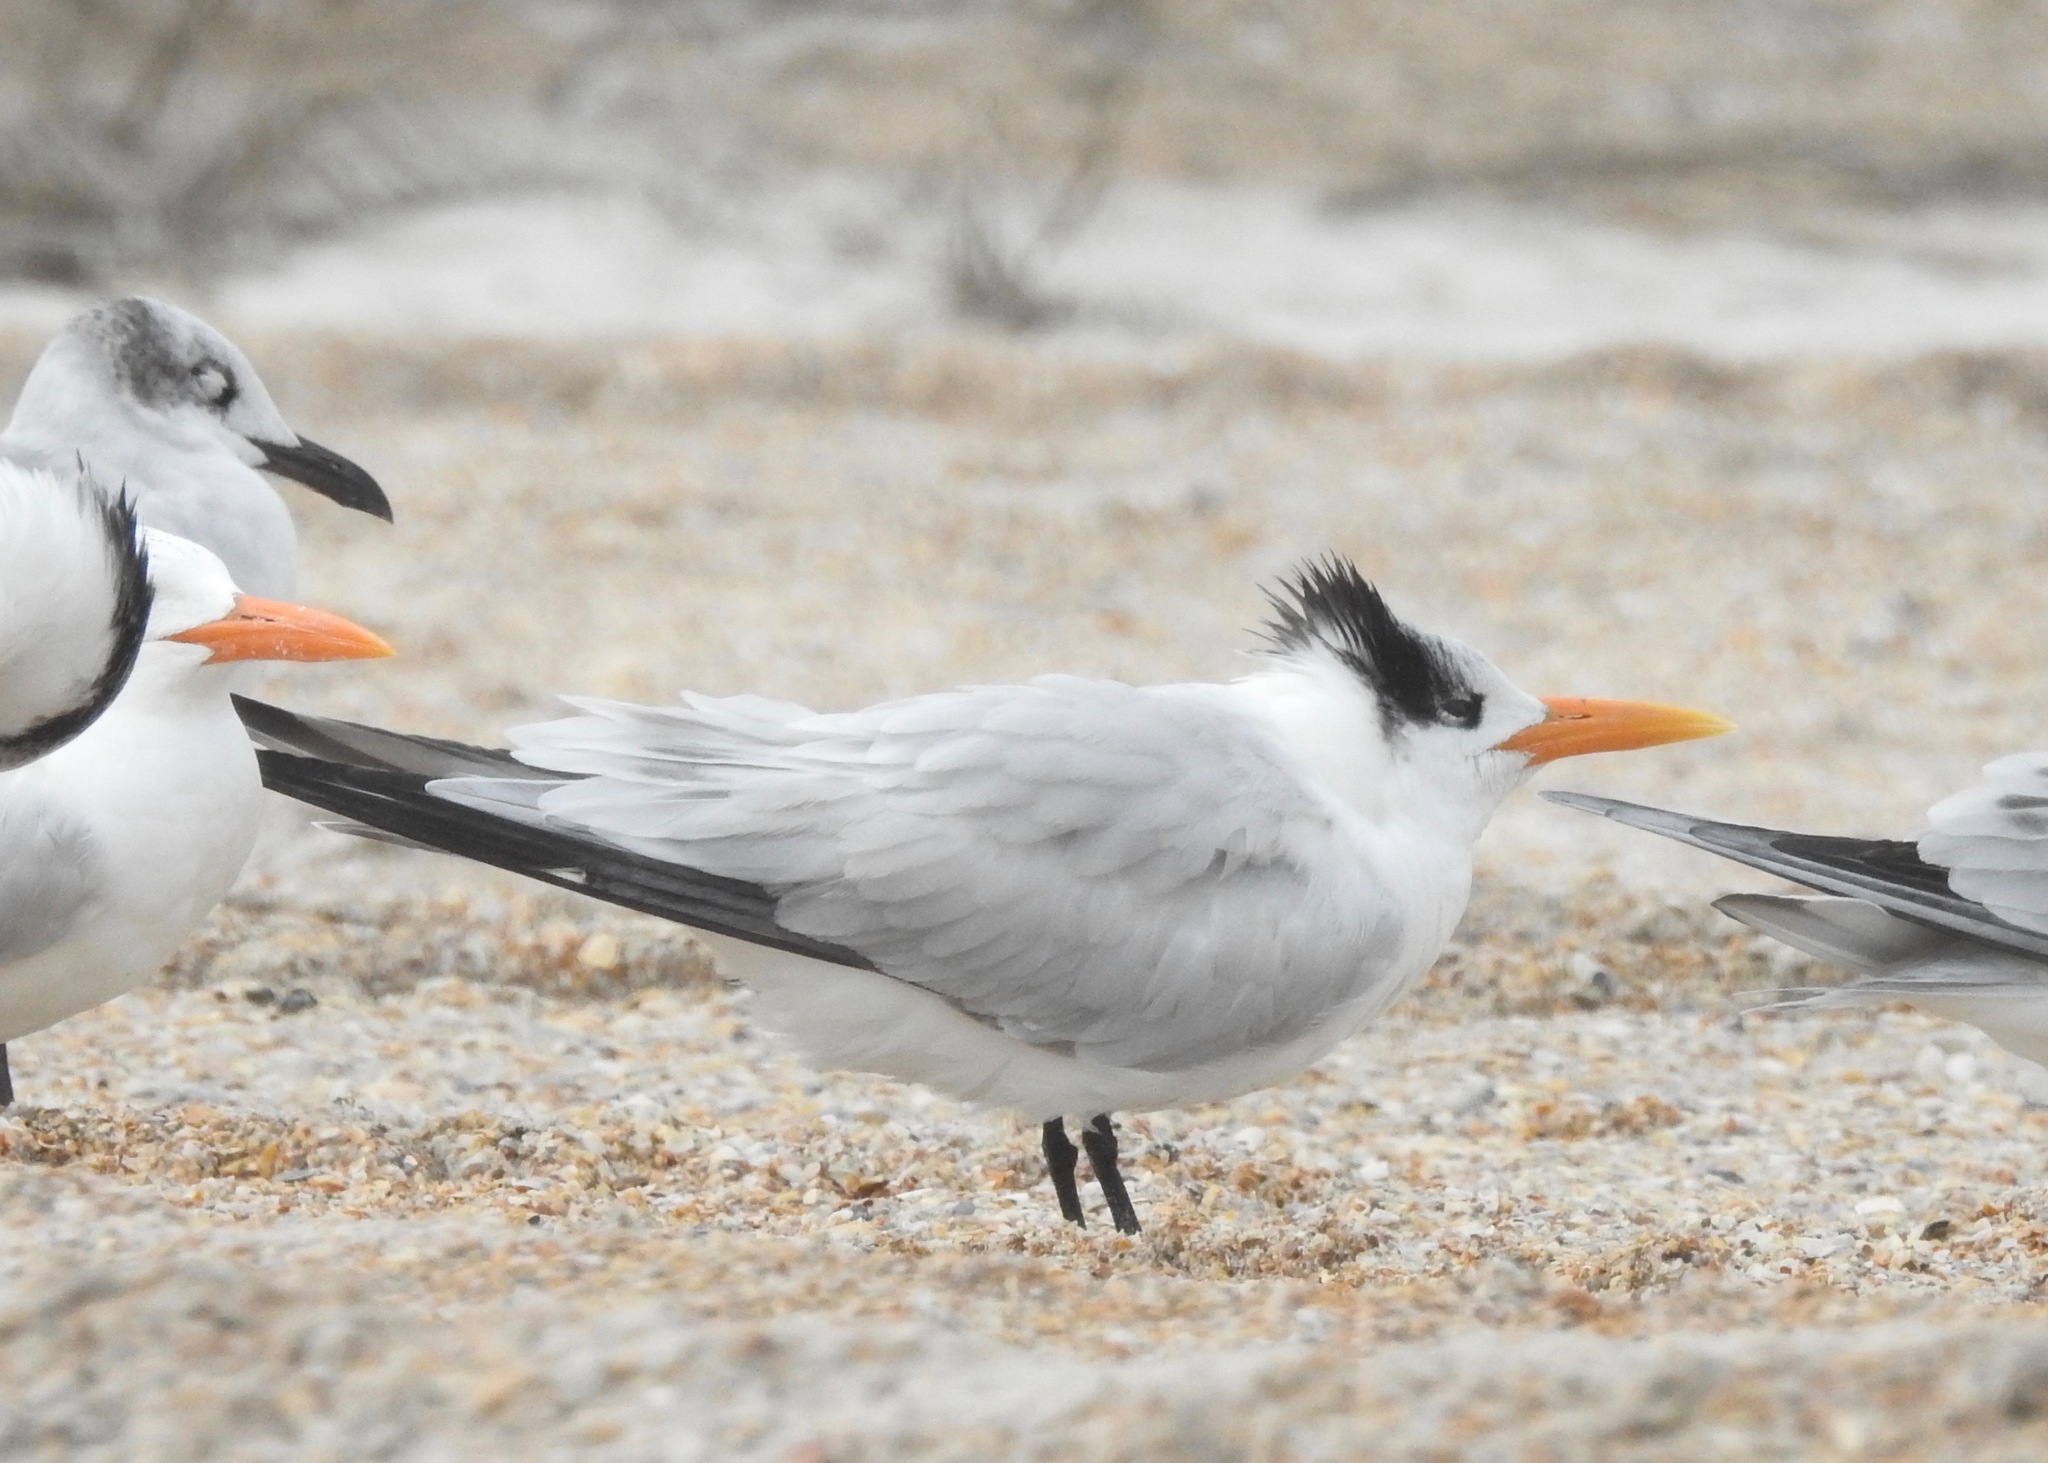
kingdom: Animalia
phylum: Chordata
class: Aves
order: Charadriiformes
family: Laridae
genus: Thalasseus
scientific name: Thalasseus maximus
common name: Royal tern
